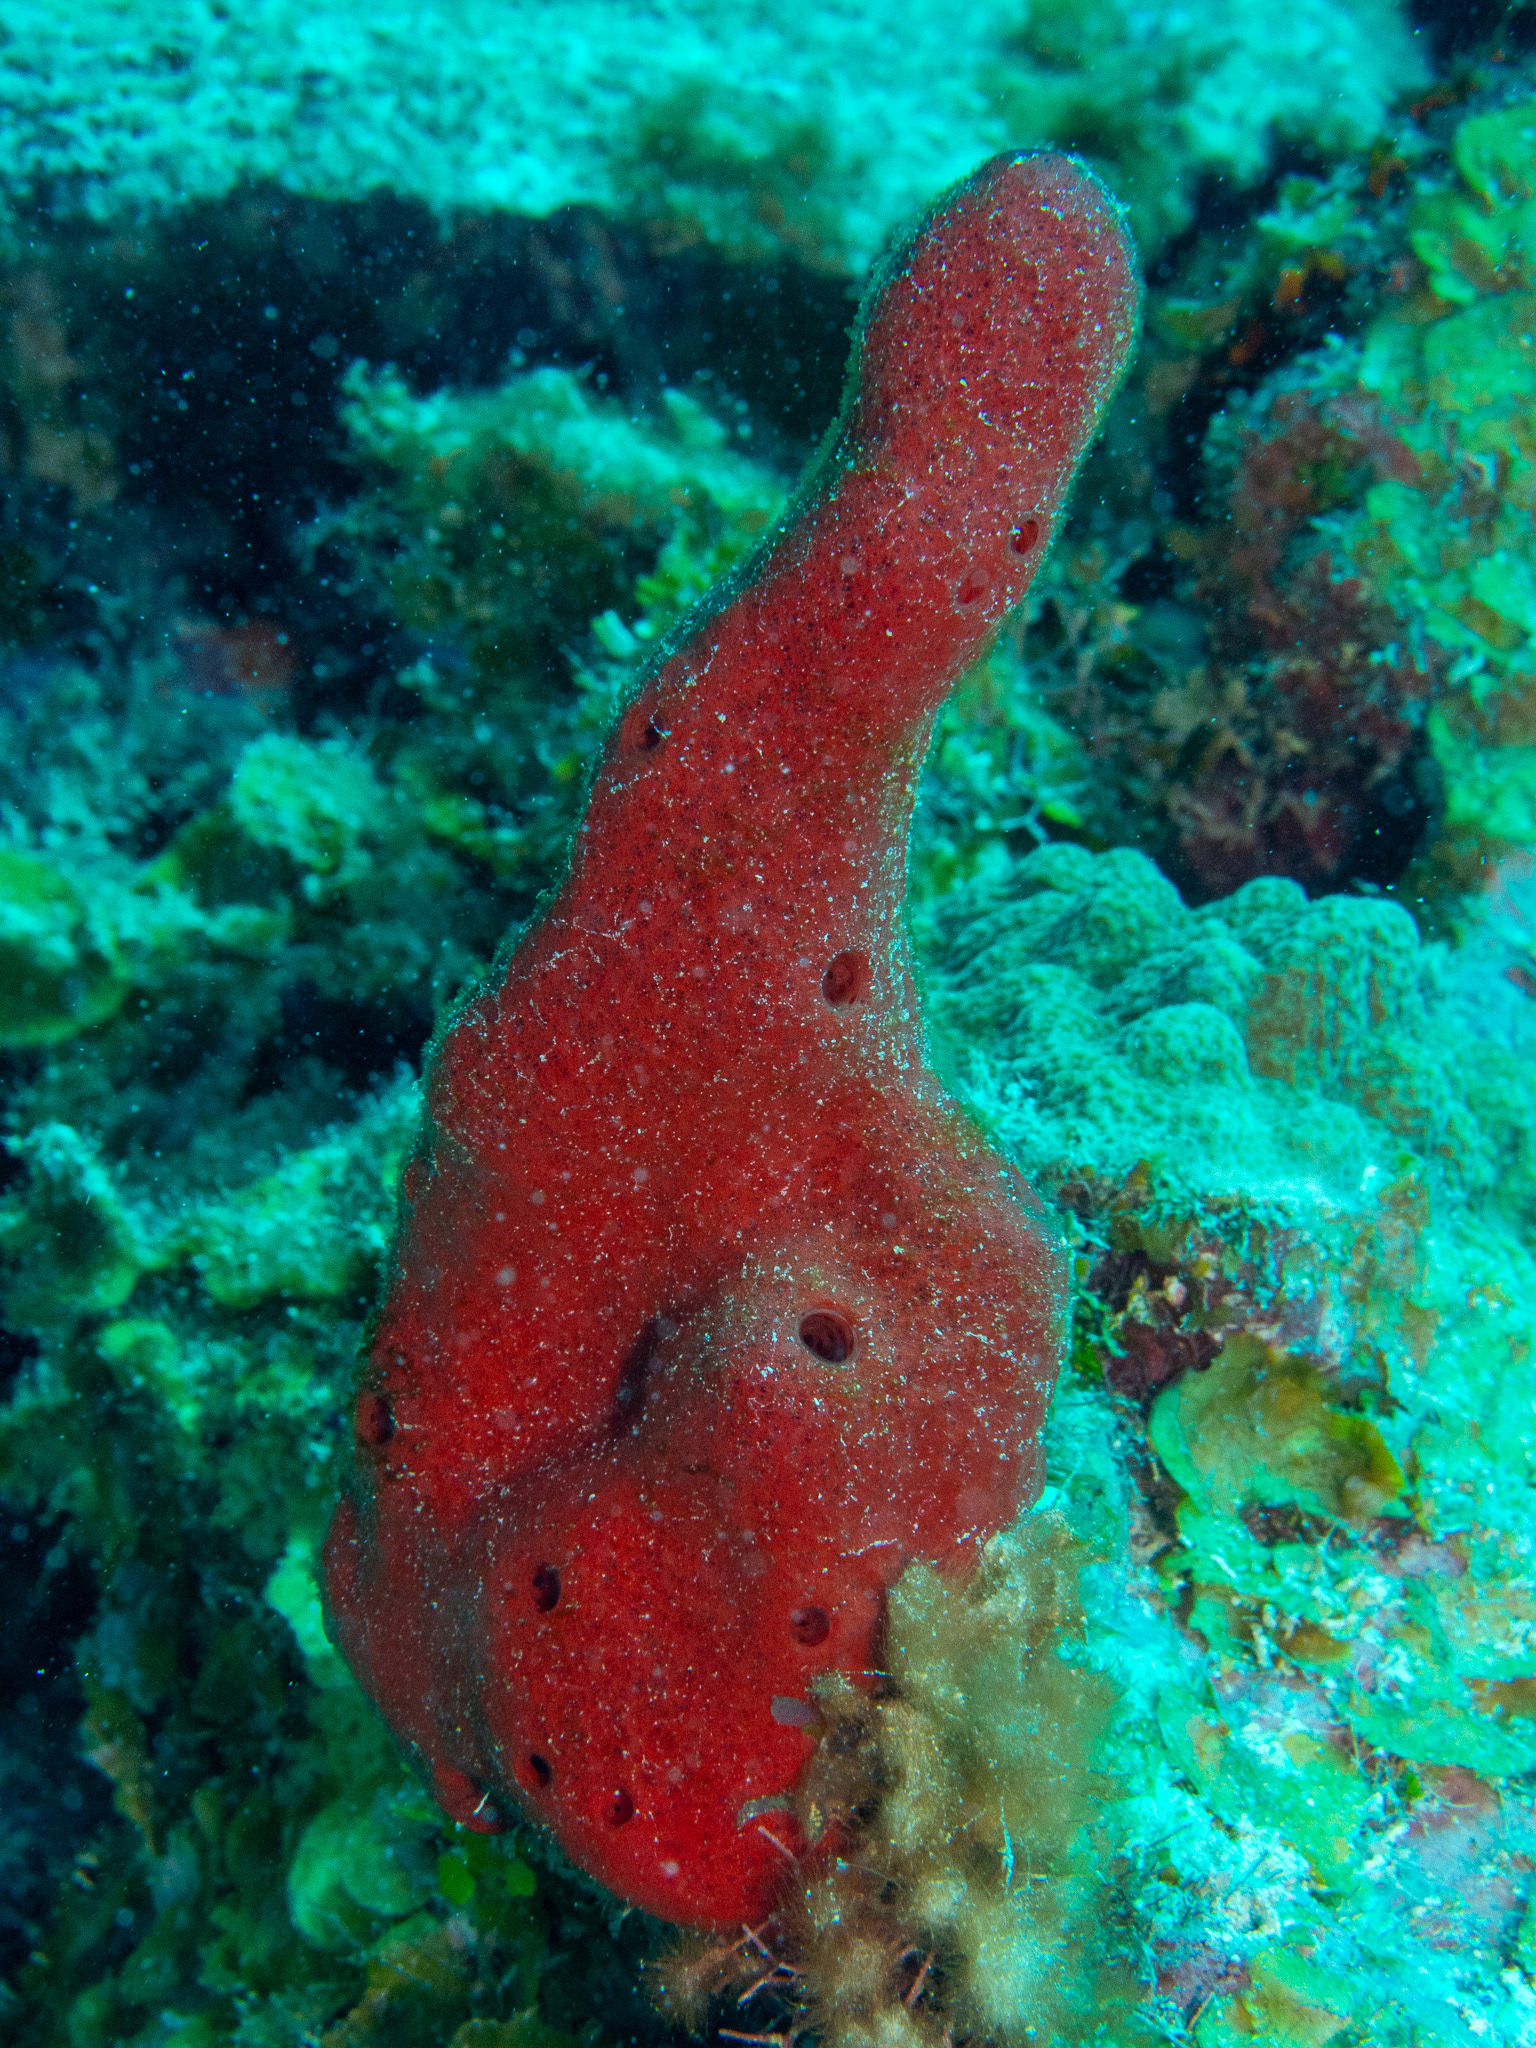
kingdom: Animalia
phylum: Porifera
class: Demospongiae
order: Haplosclerida
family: Niphatidae
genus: Amphimedon
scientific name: Amphimedon compressa
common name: Red sponge
